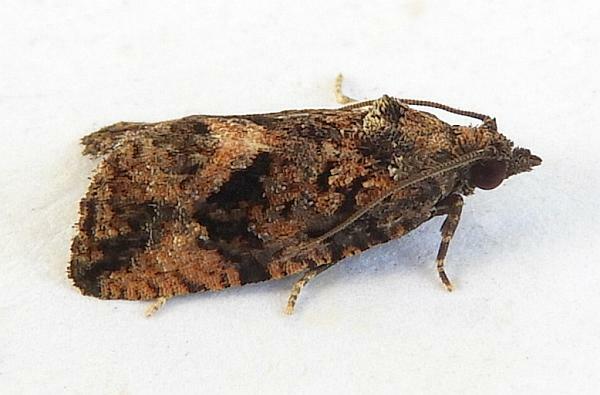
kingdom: Animalia
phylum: Arthropoda
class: Insecta
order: Lepidoptera
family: Tortricidae
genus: Gymnandrosoma
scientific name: Gymnandrosoma desotanum
